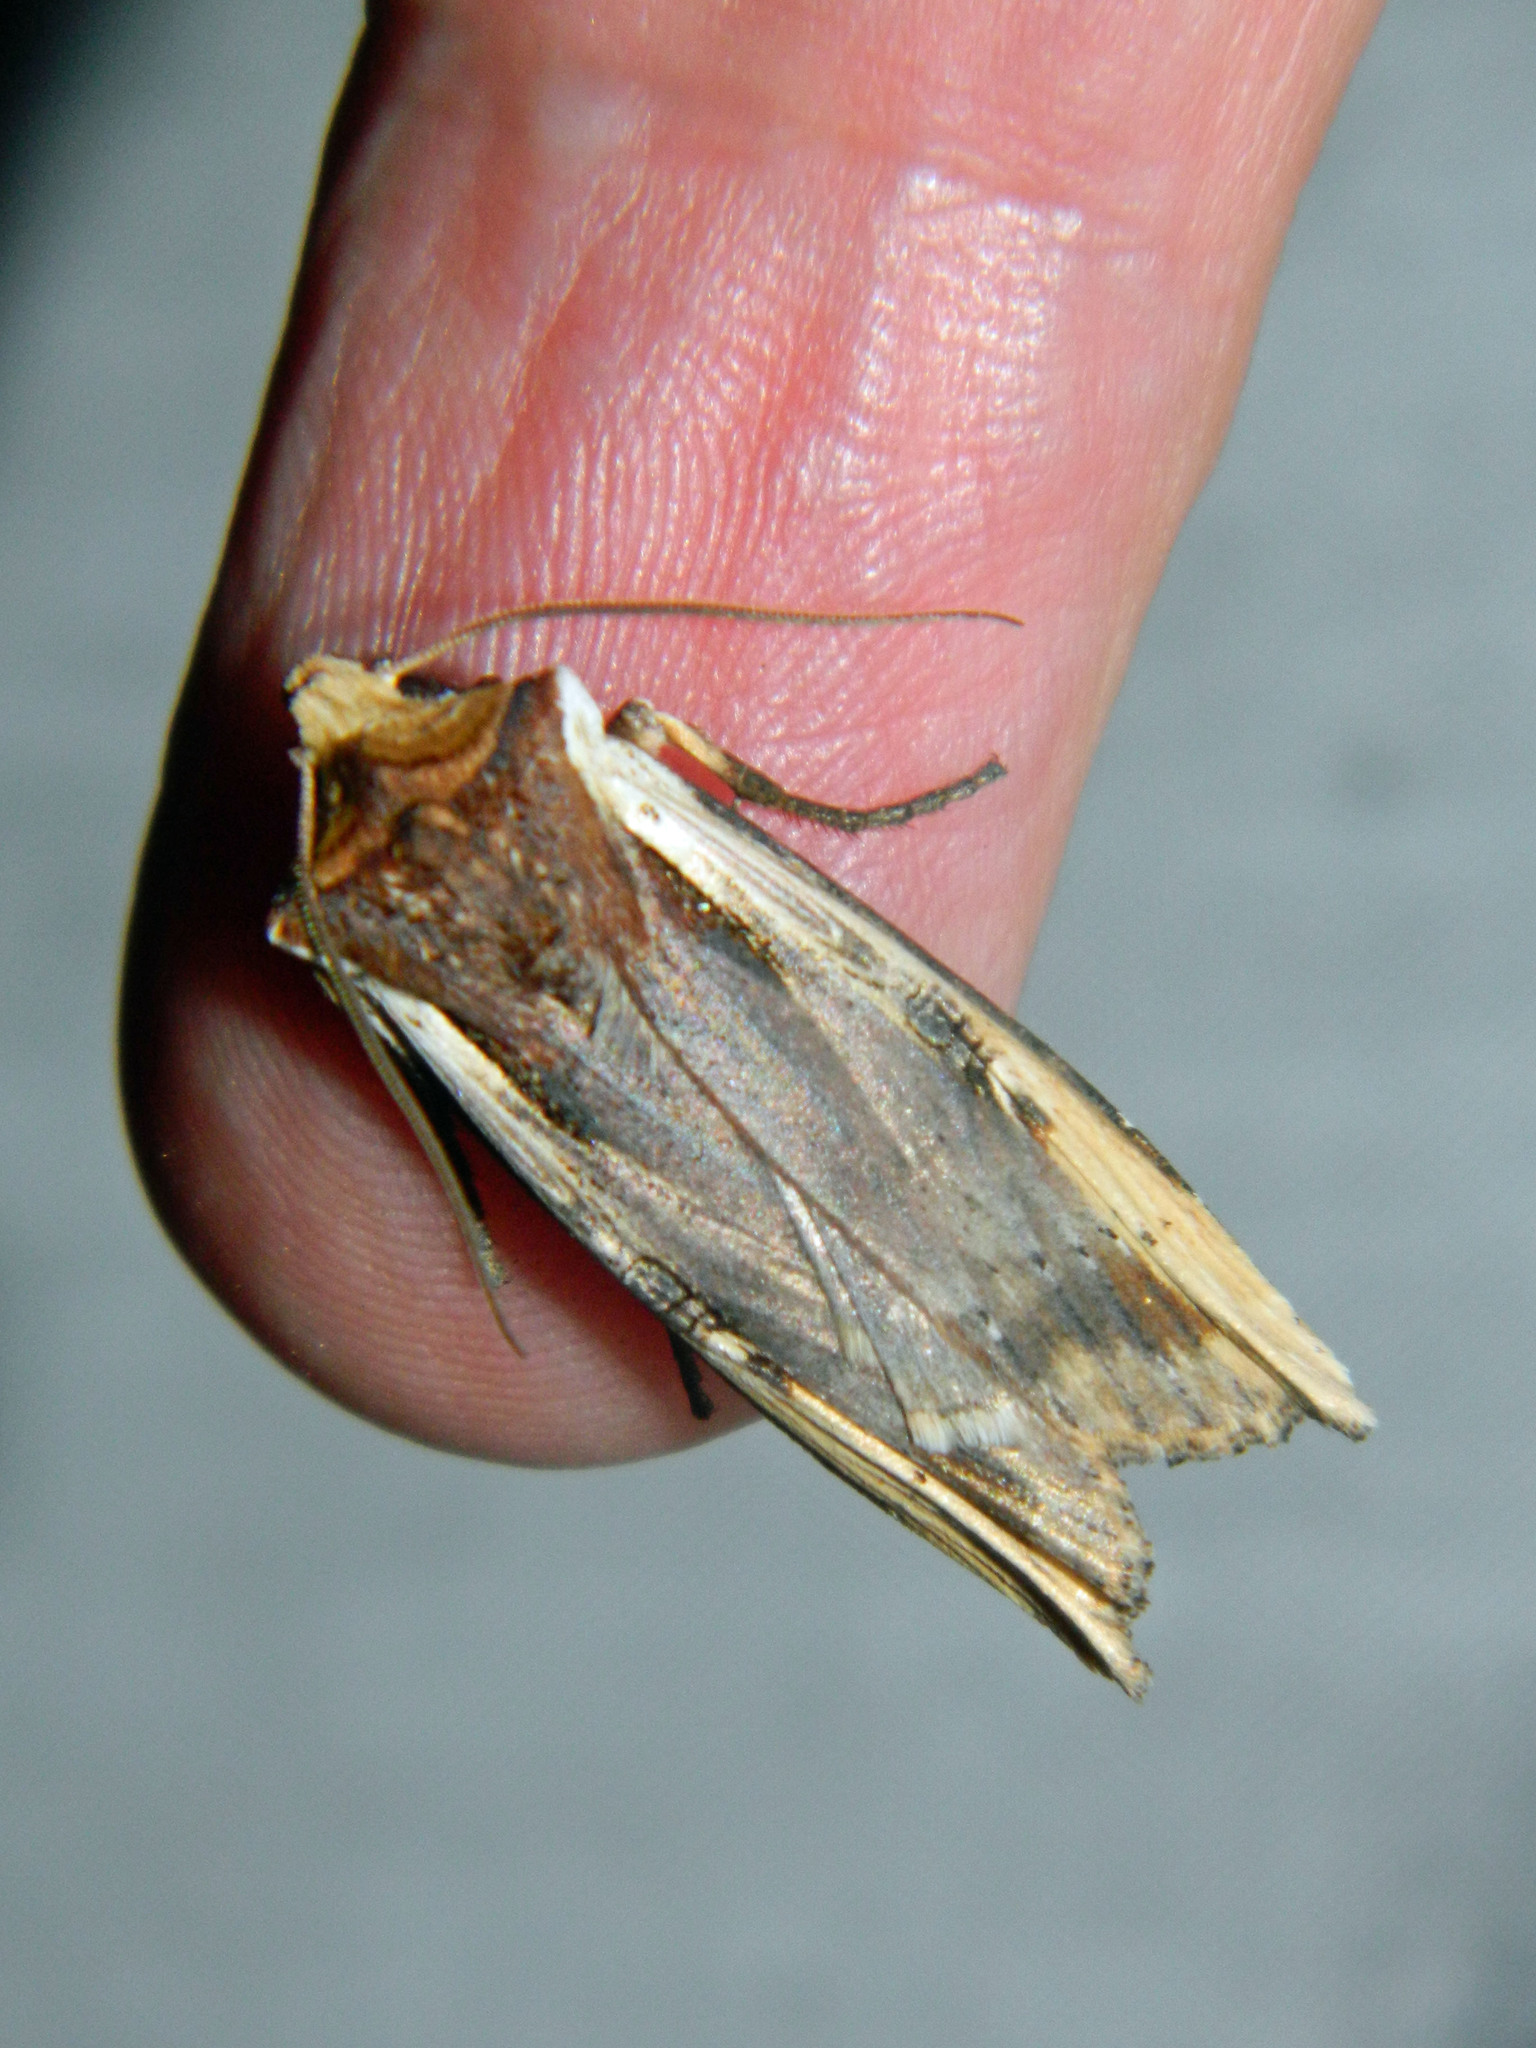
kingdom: Animalia
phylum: Arthropoda
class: Insecta
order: Lepidoptera
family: Noctuidae
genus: Xylena
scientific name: Xylena curvimacula
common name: Dot-and-dash swordgrass moth
